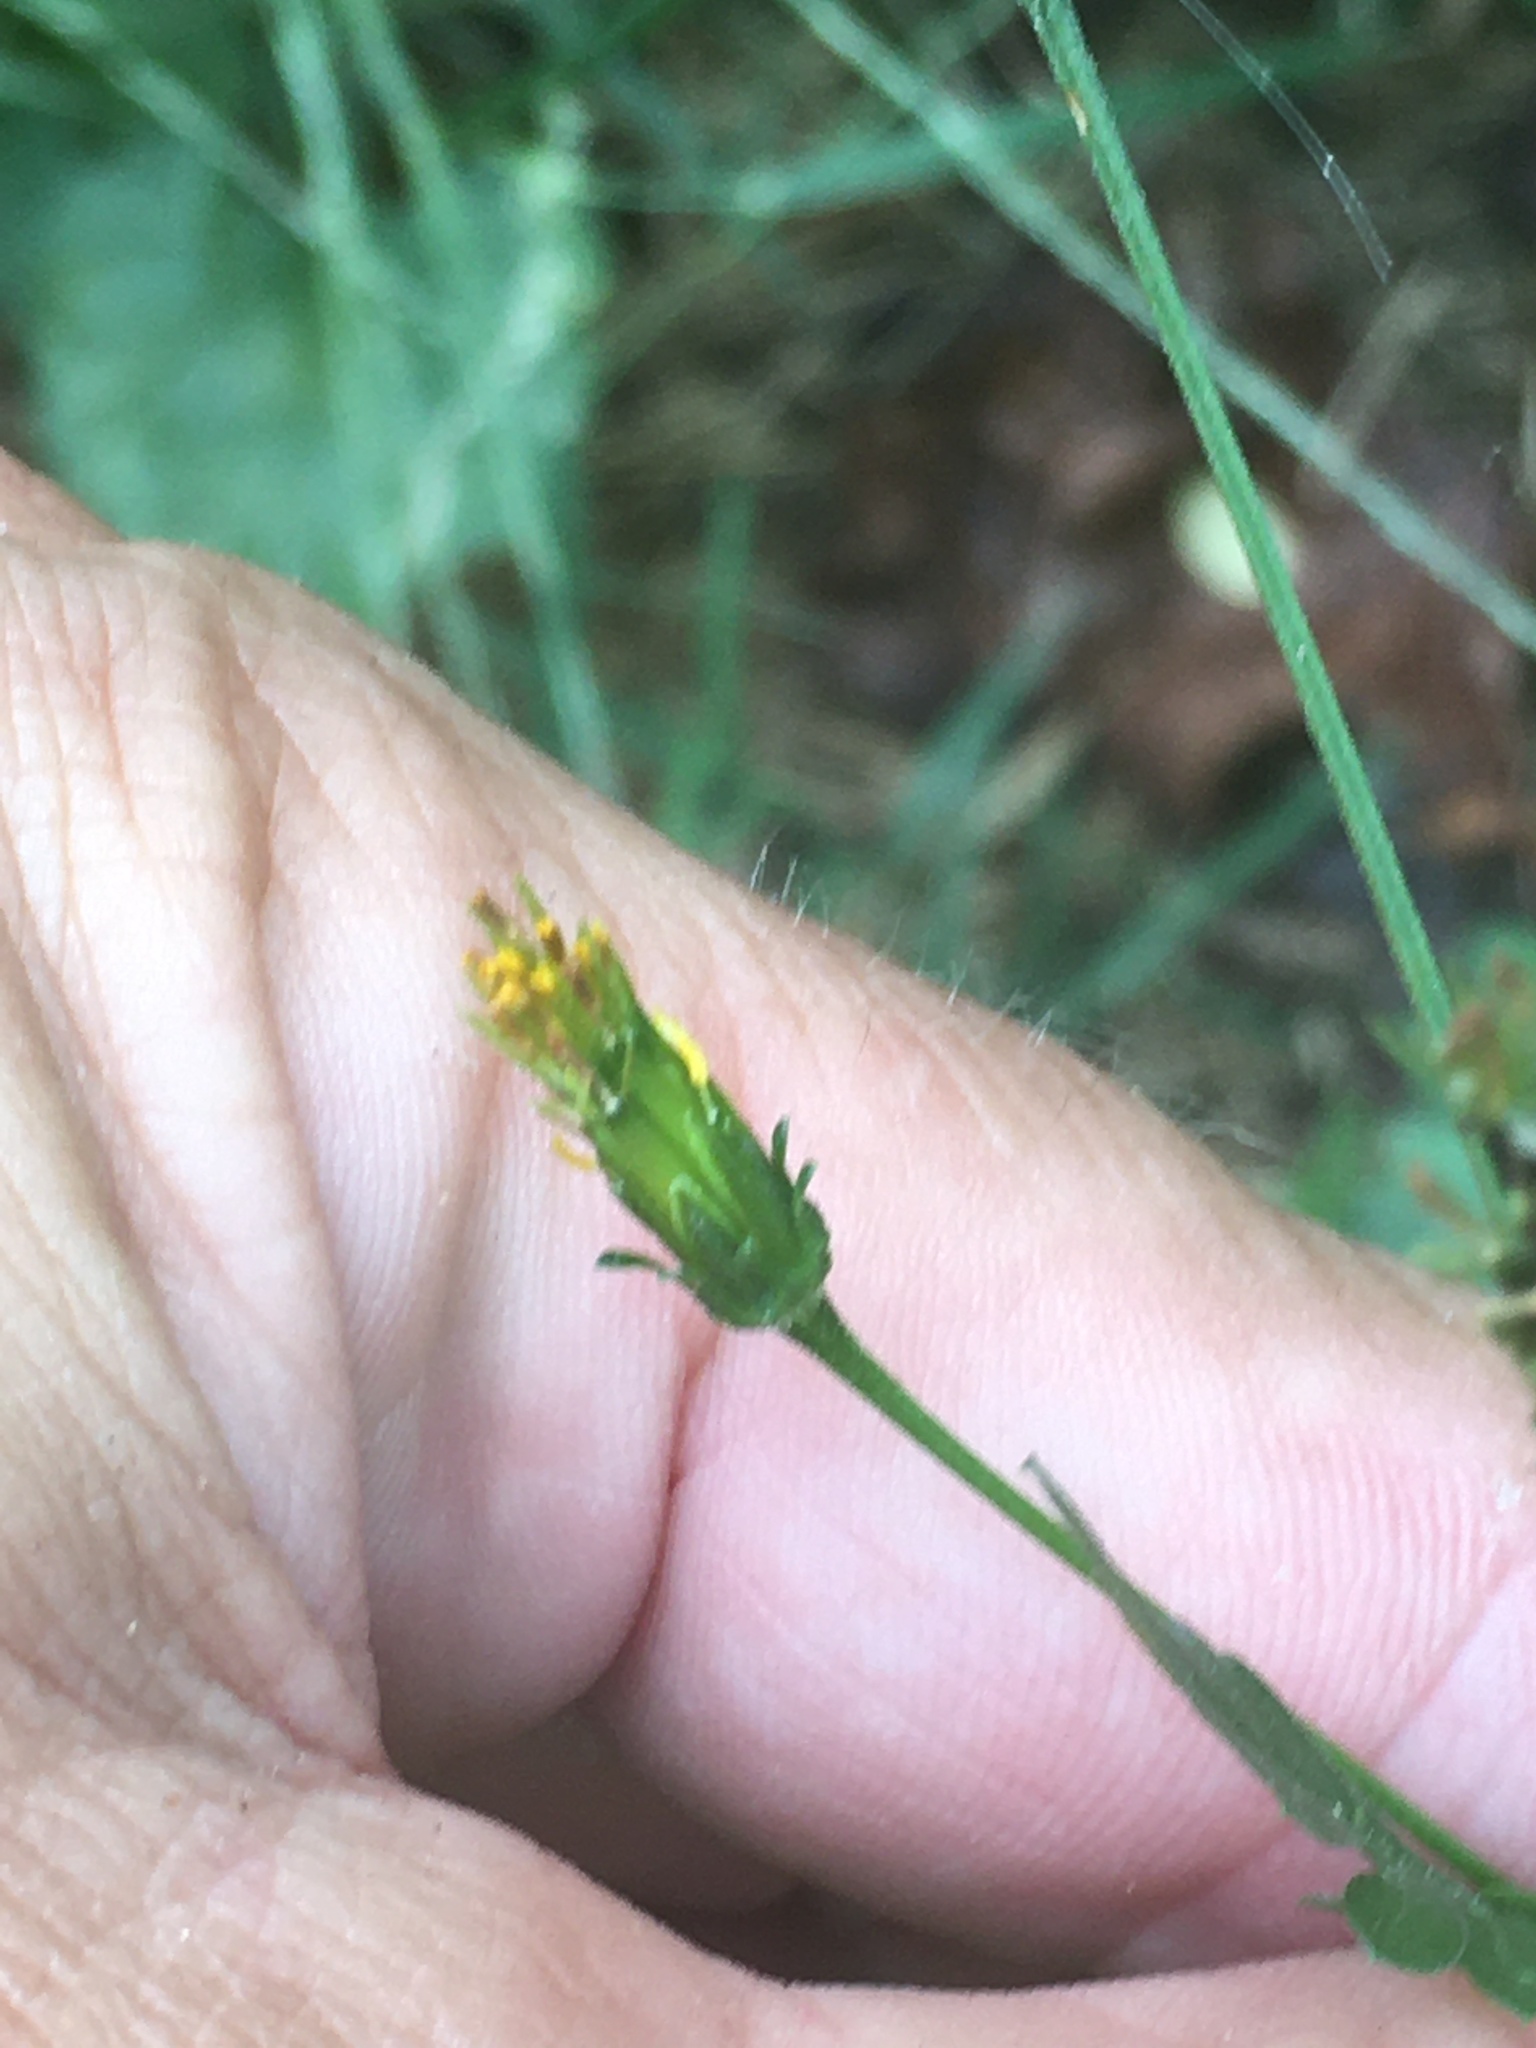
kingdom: Plantae
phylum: Tracheophyta
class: Magnoliopsida
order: Asterales
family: Asteraceae
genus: Bidens
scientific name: Bidens bipinnata
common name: Spanish-needles
